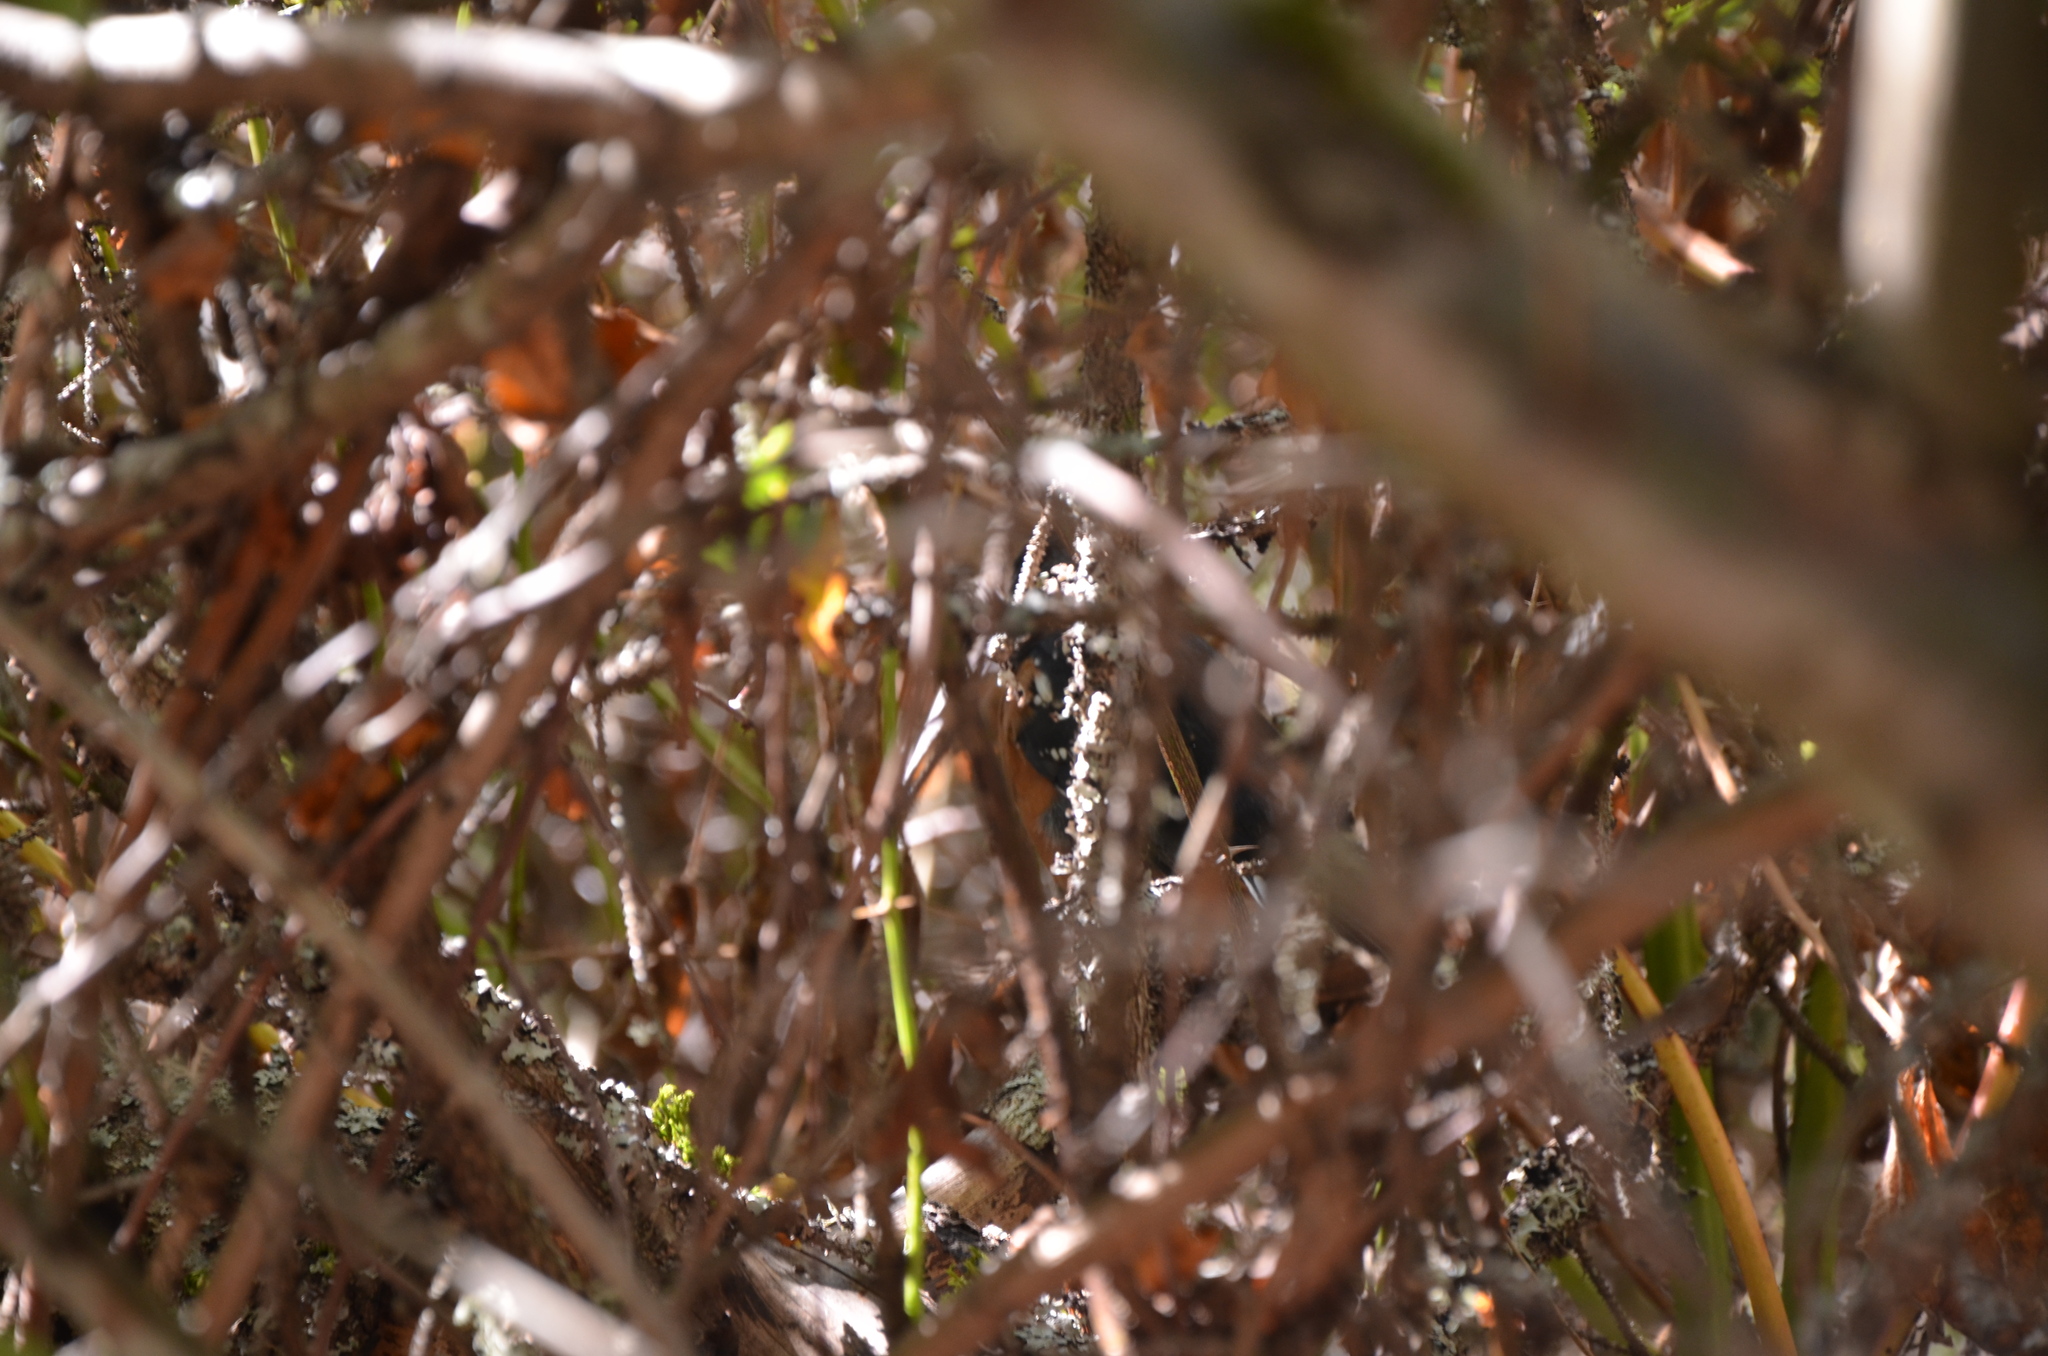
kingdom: Animalia
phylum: Chordata
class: Aves
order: Passeriformes
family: Passerellidae
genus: Pipilo
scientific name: Pipilo maculatus
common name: Spotted towhee
